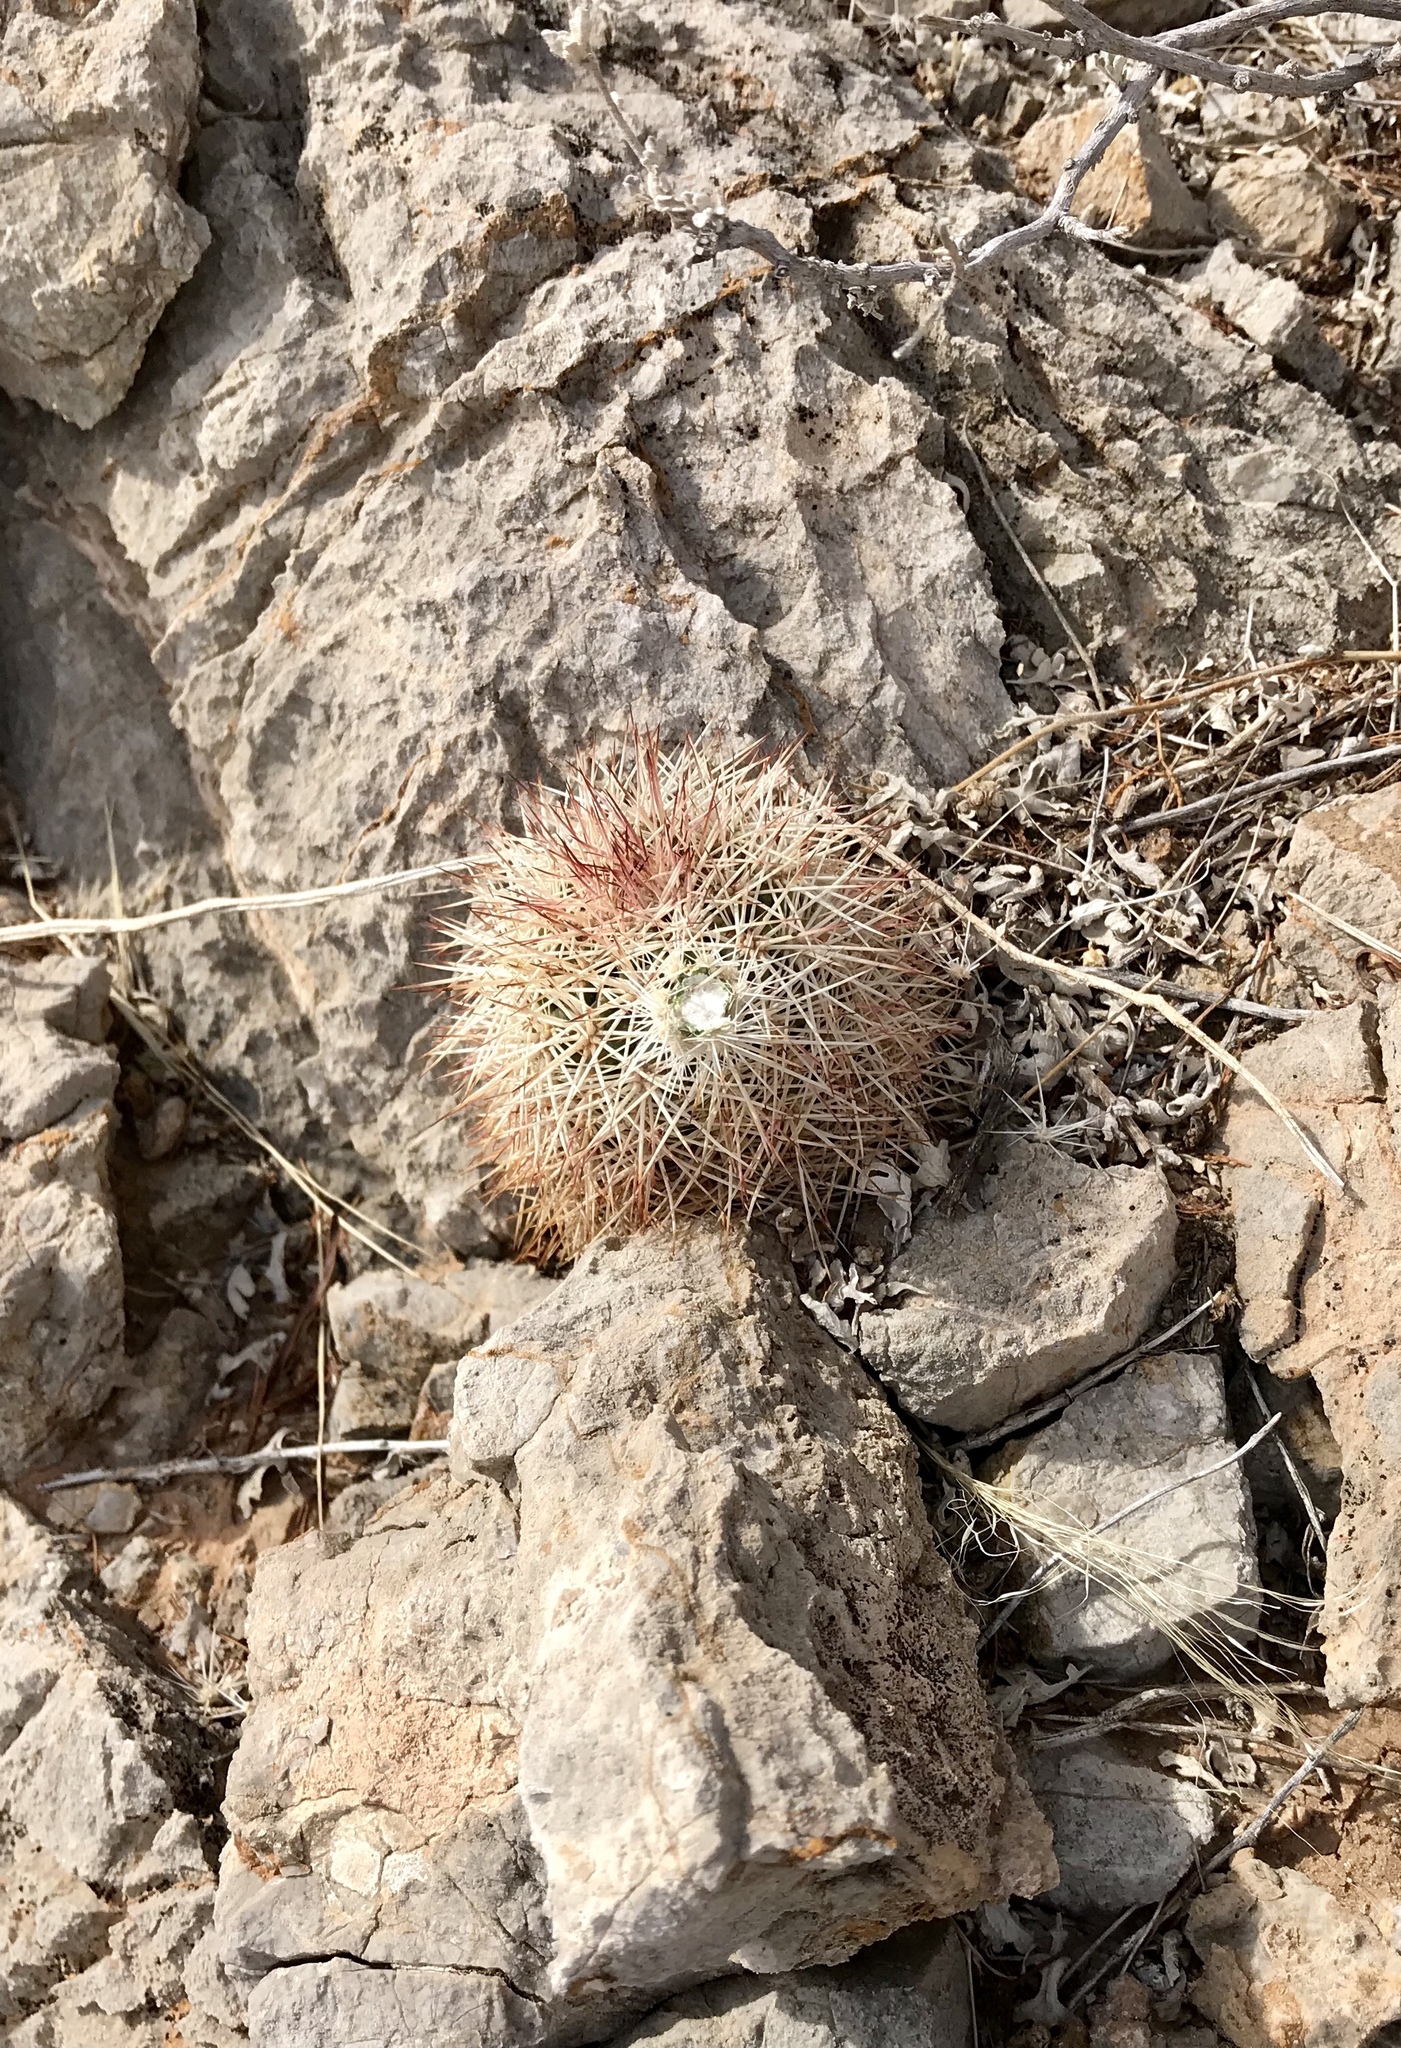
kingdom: Plantae
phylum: Tracheophyta
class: Magnoliopsida
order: Caryophyllales
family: Cactaceae
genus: Echinocereus
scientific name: Echinocereus dasyacanthus
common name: Spiny hedgehog cactus
